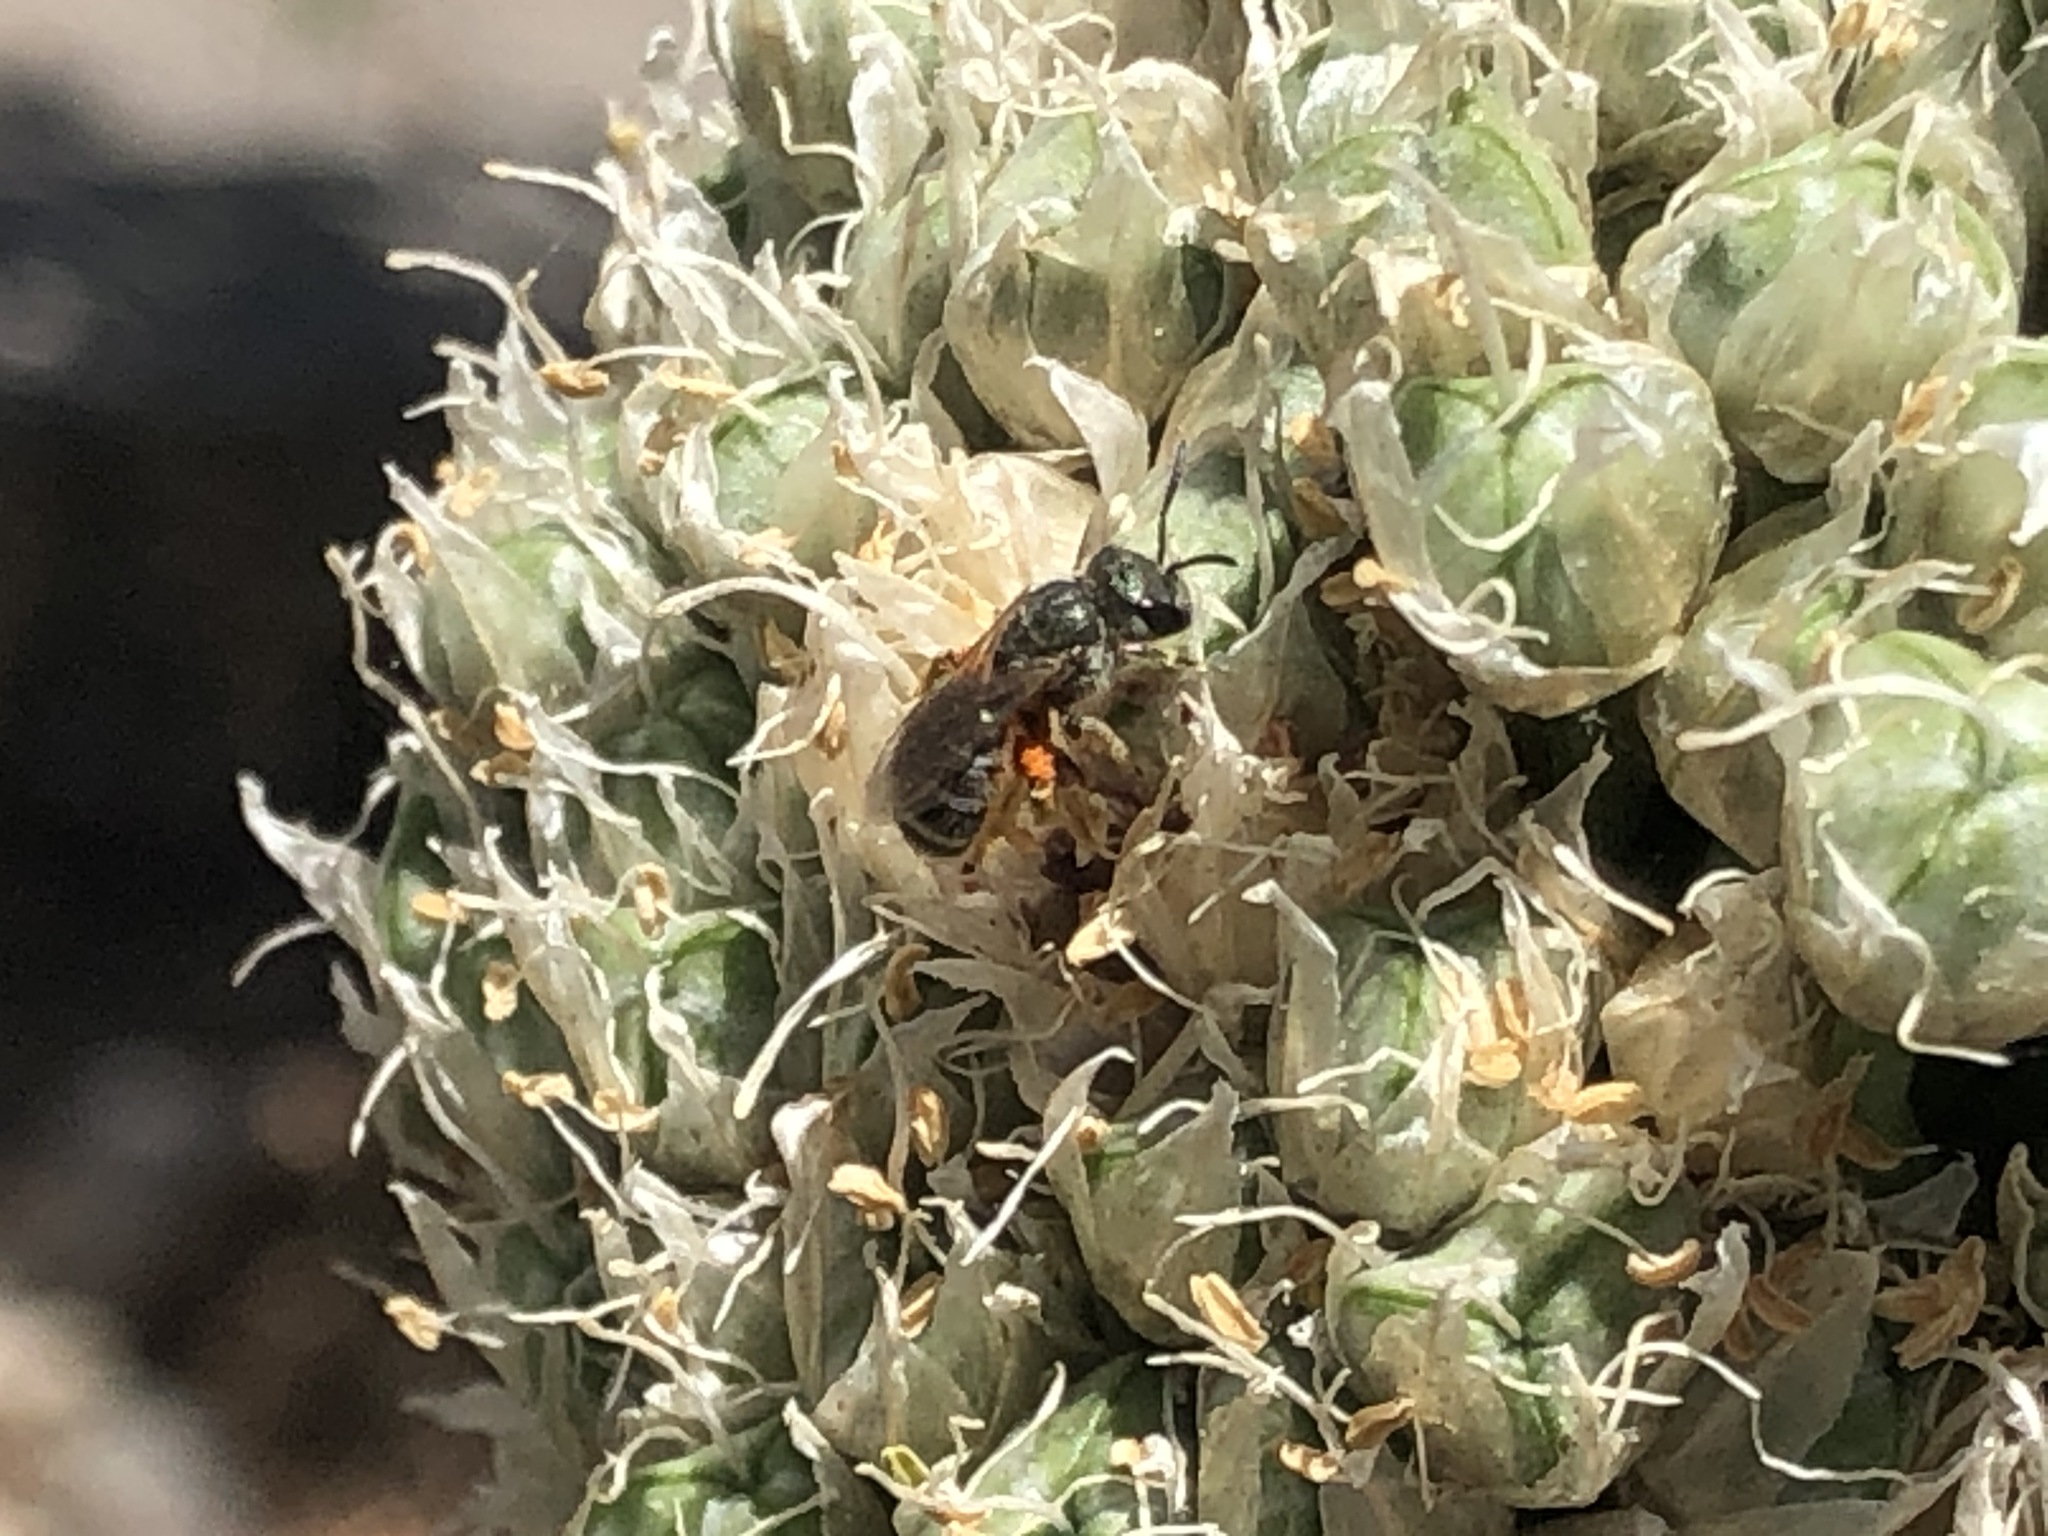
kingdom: Animalia
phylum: Arthropoda
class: Insecta
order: Hymenoptera
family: Halictidae
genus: Halictus
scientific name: Halictus tripartitus
